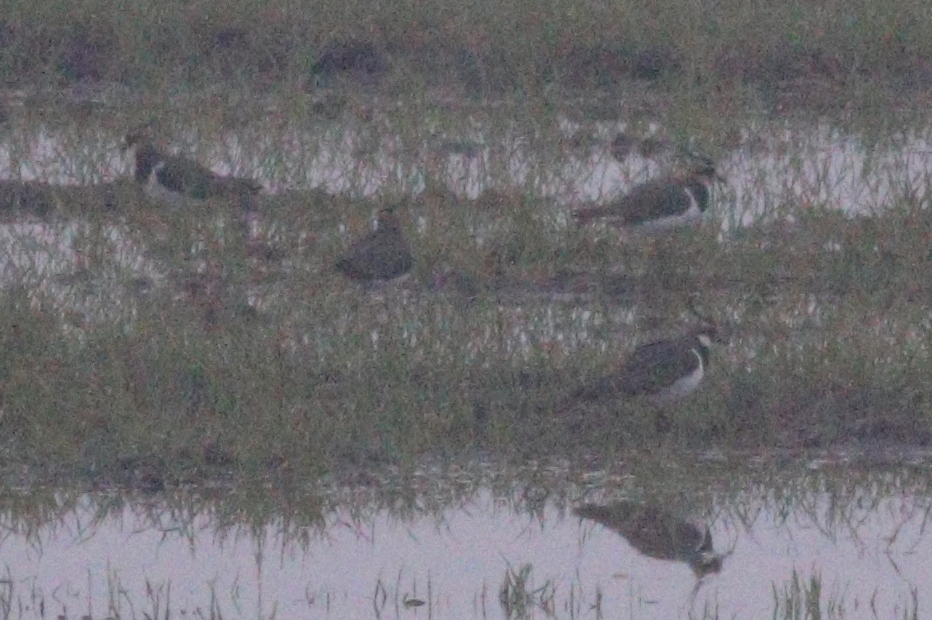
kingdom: Animalia
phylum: Chordata
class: Aves
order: Charadriiformes
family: Charadriidae
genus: Vanellus
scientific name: Vanellus vanellus
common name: Northern lapwing
